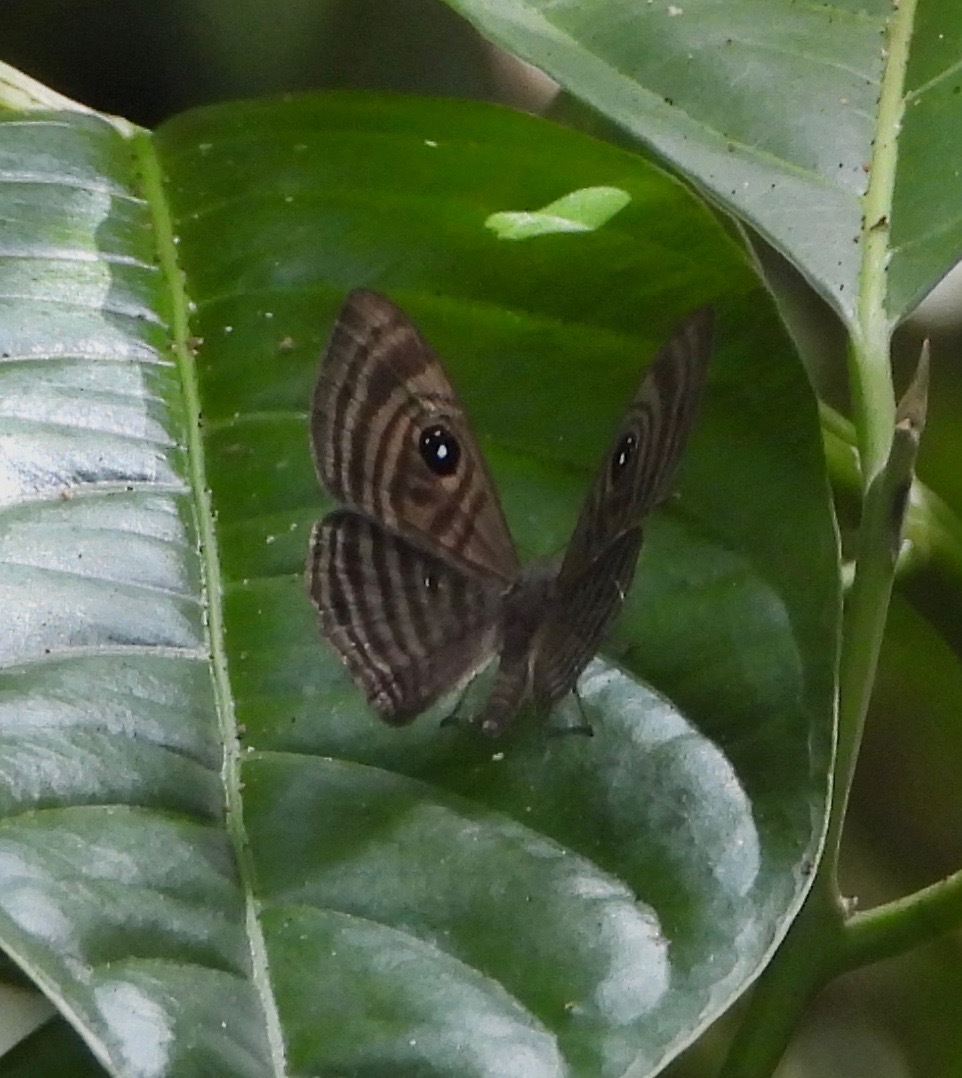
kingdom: Animalia
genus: Mesosemia
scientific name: Mesosemia cippus
